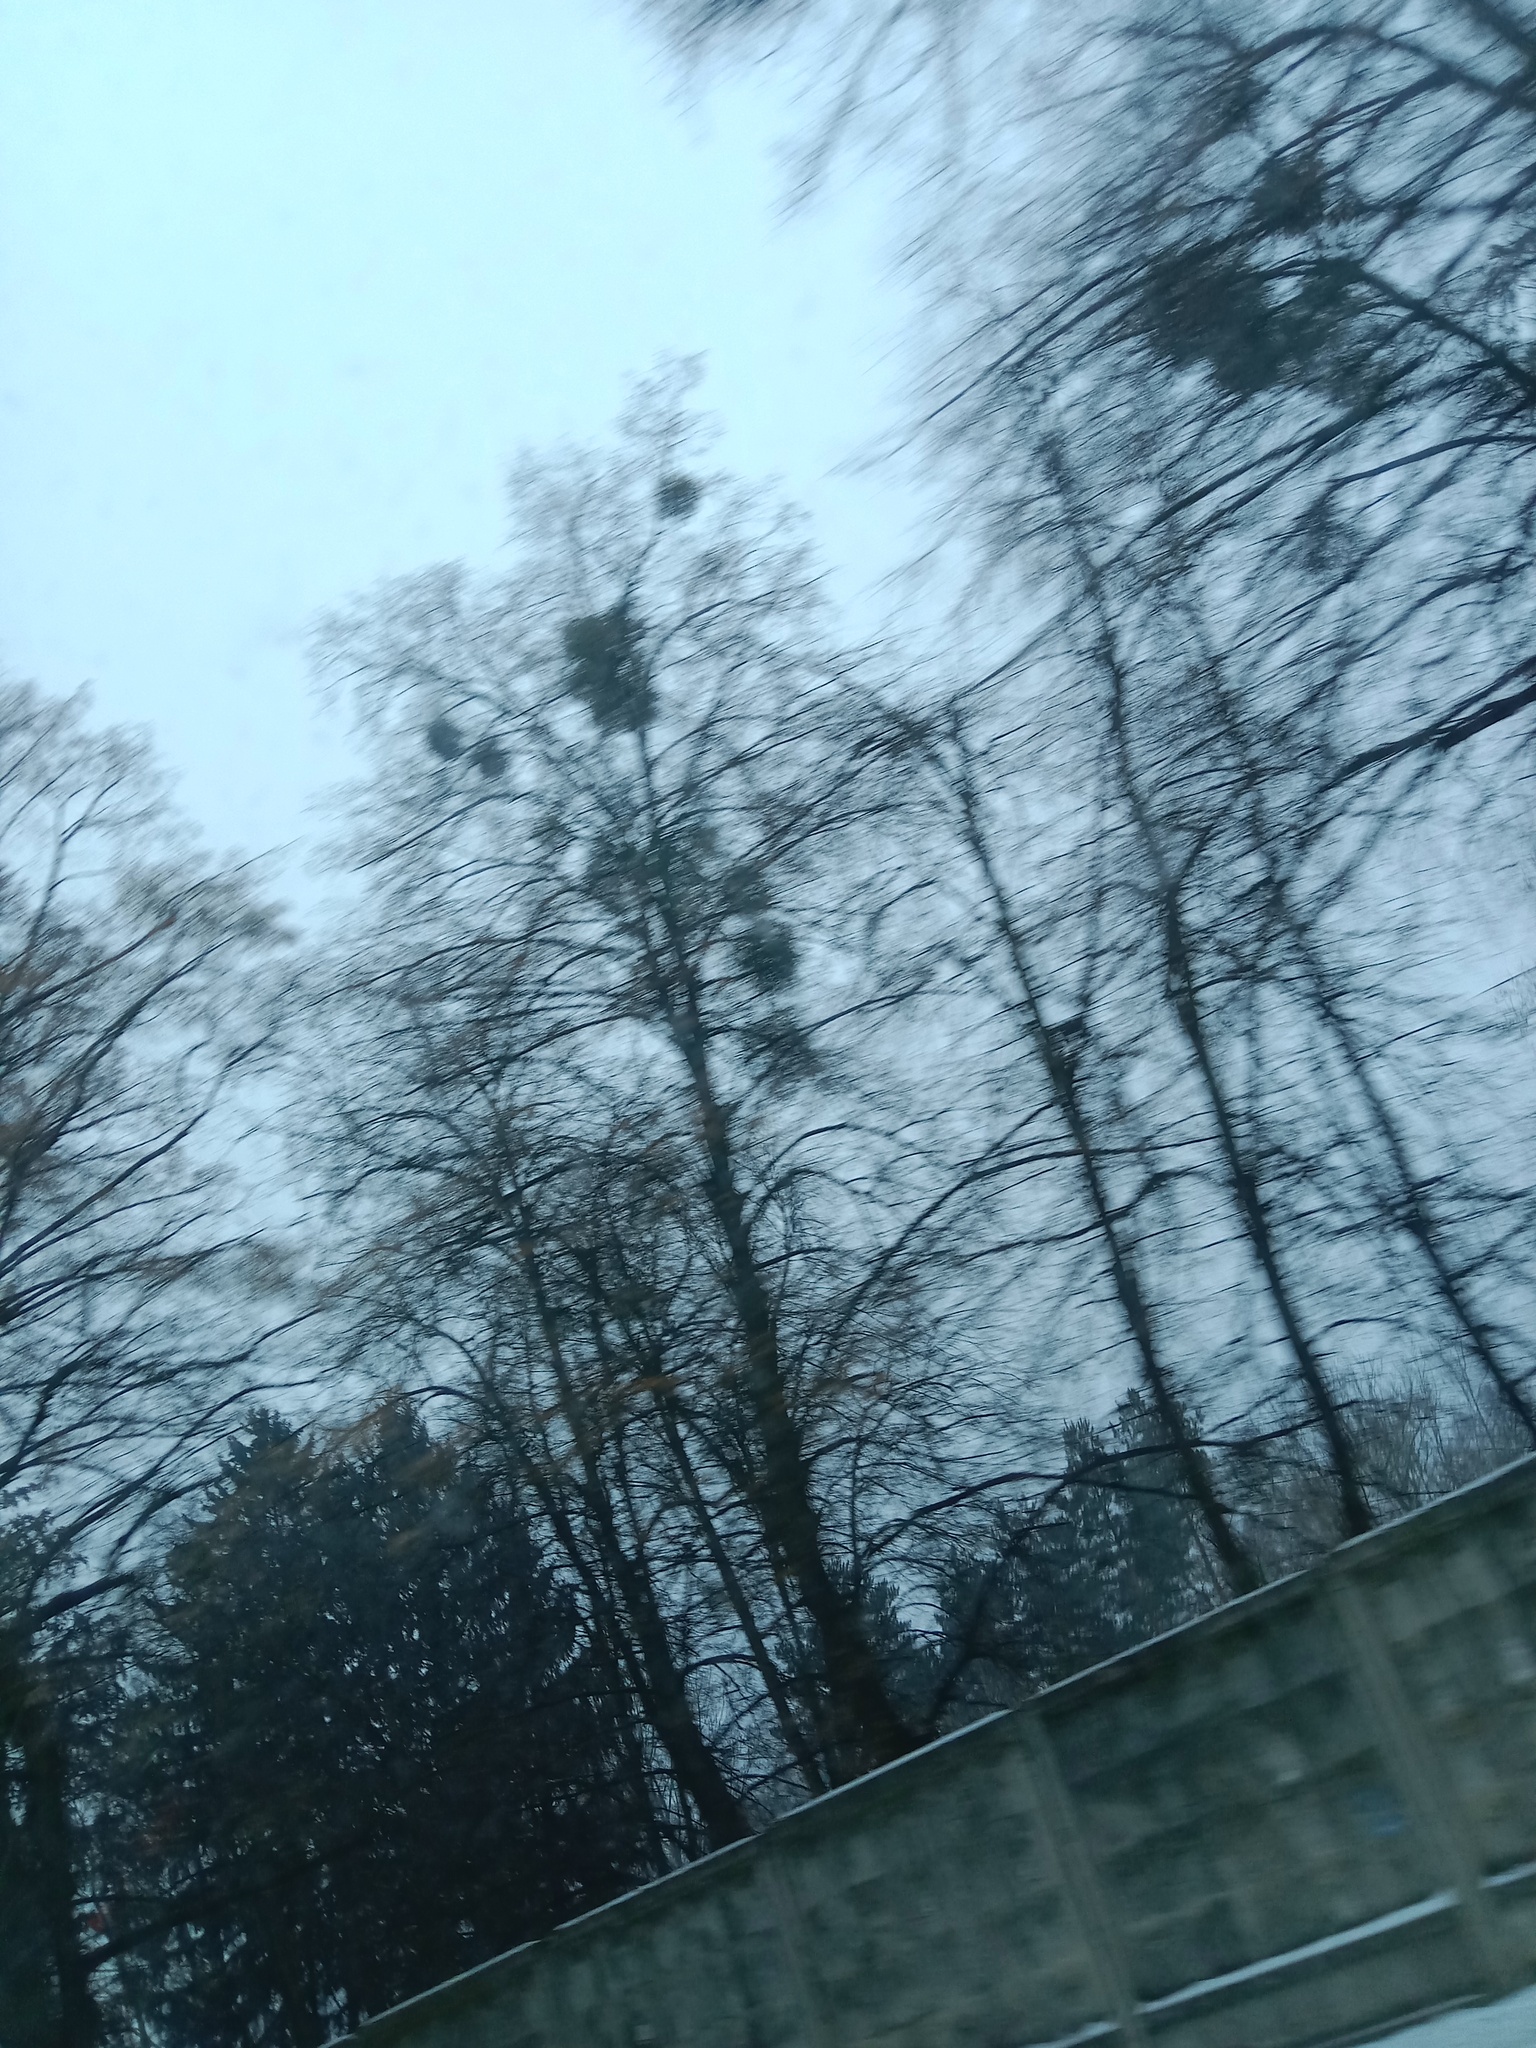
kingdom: Plantae
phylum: Tracheophyta
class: Magnoliopsida
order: Santalales
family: Viscaceae
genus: Viscum
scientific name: Viscum album
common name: Mistletoe
